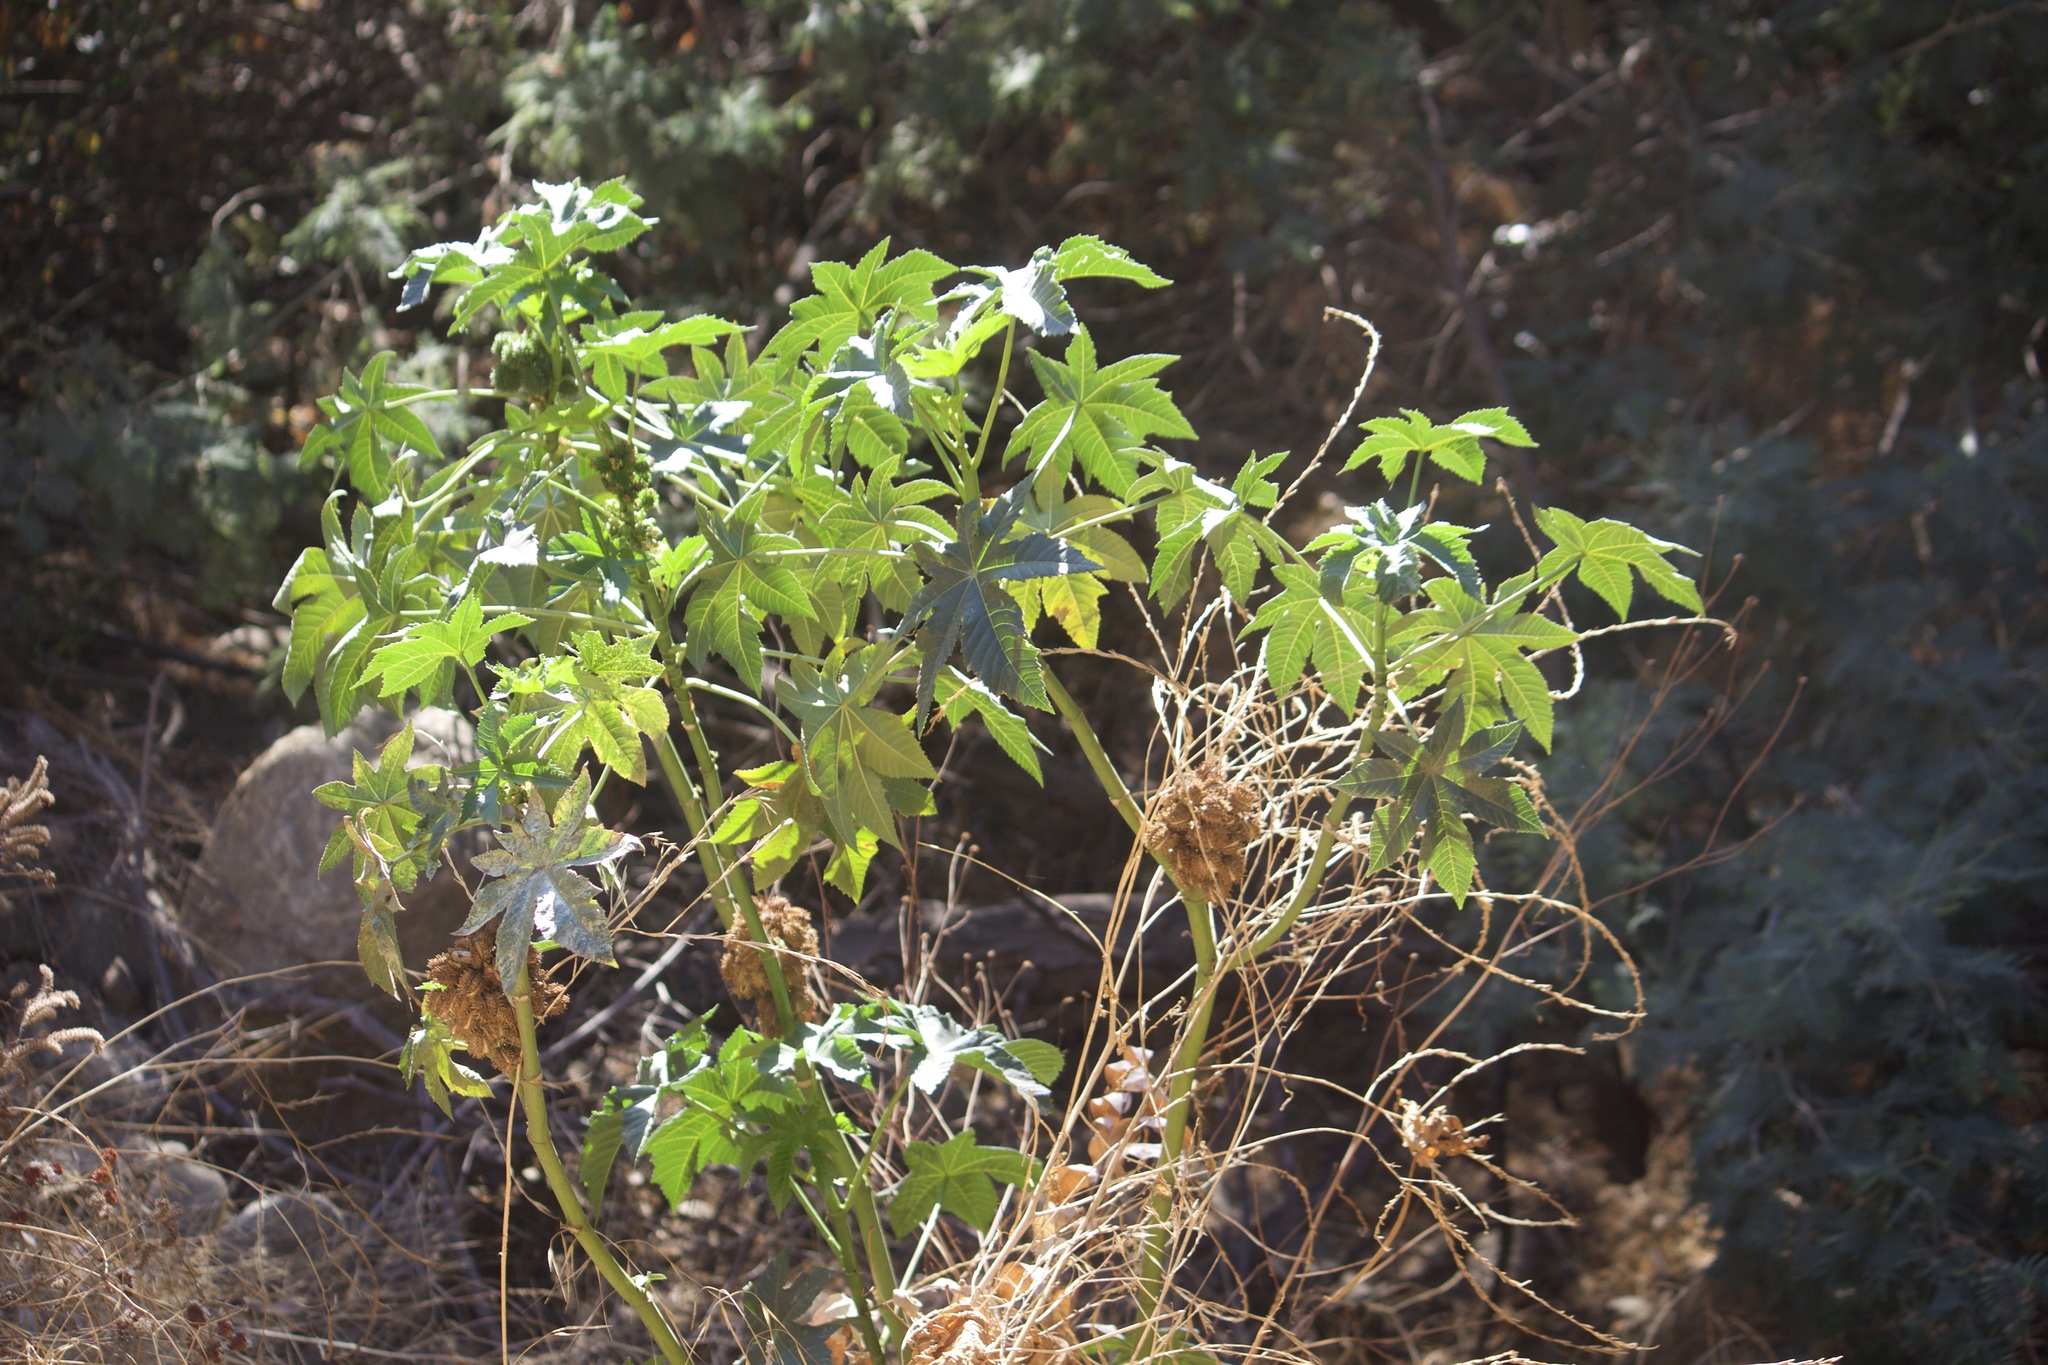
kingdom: Plantae
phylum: Tracheophyta
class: Magnoliopsida
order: Malpighiales
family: Euphorbiaceae
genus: Ricinus
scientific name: Ricinus communis
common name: Castor-oil-plant
